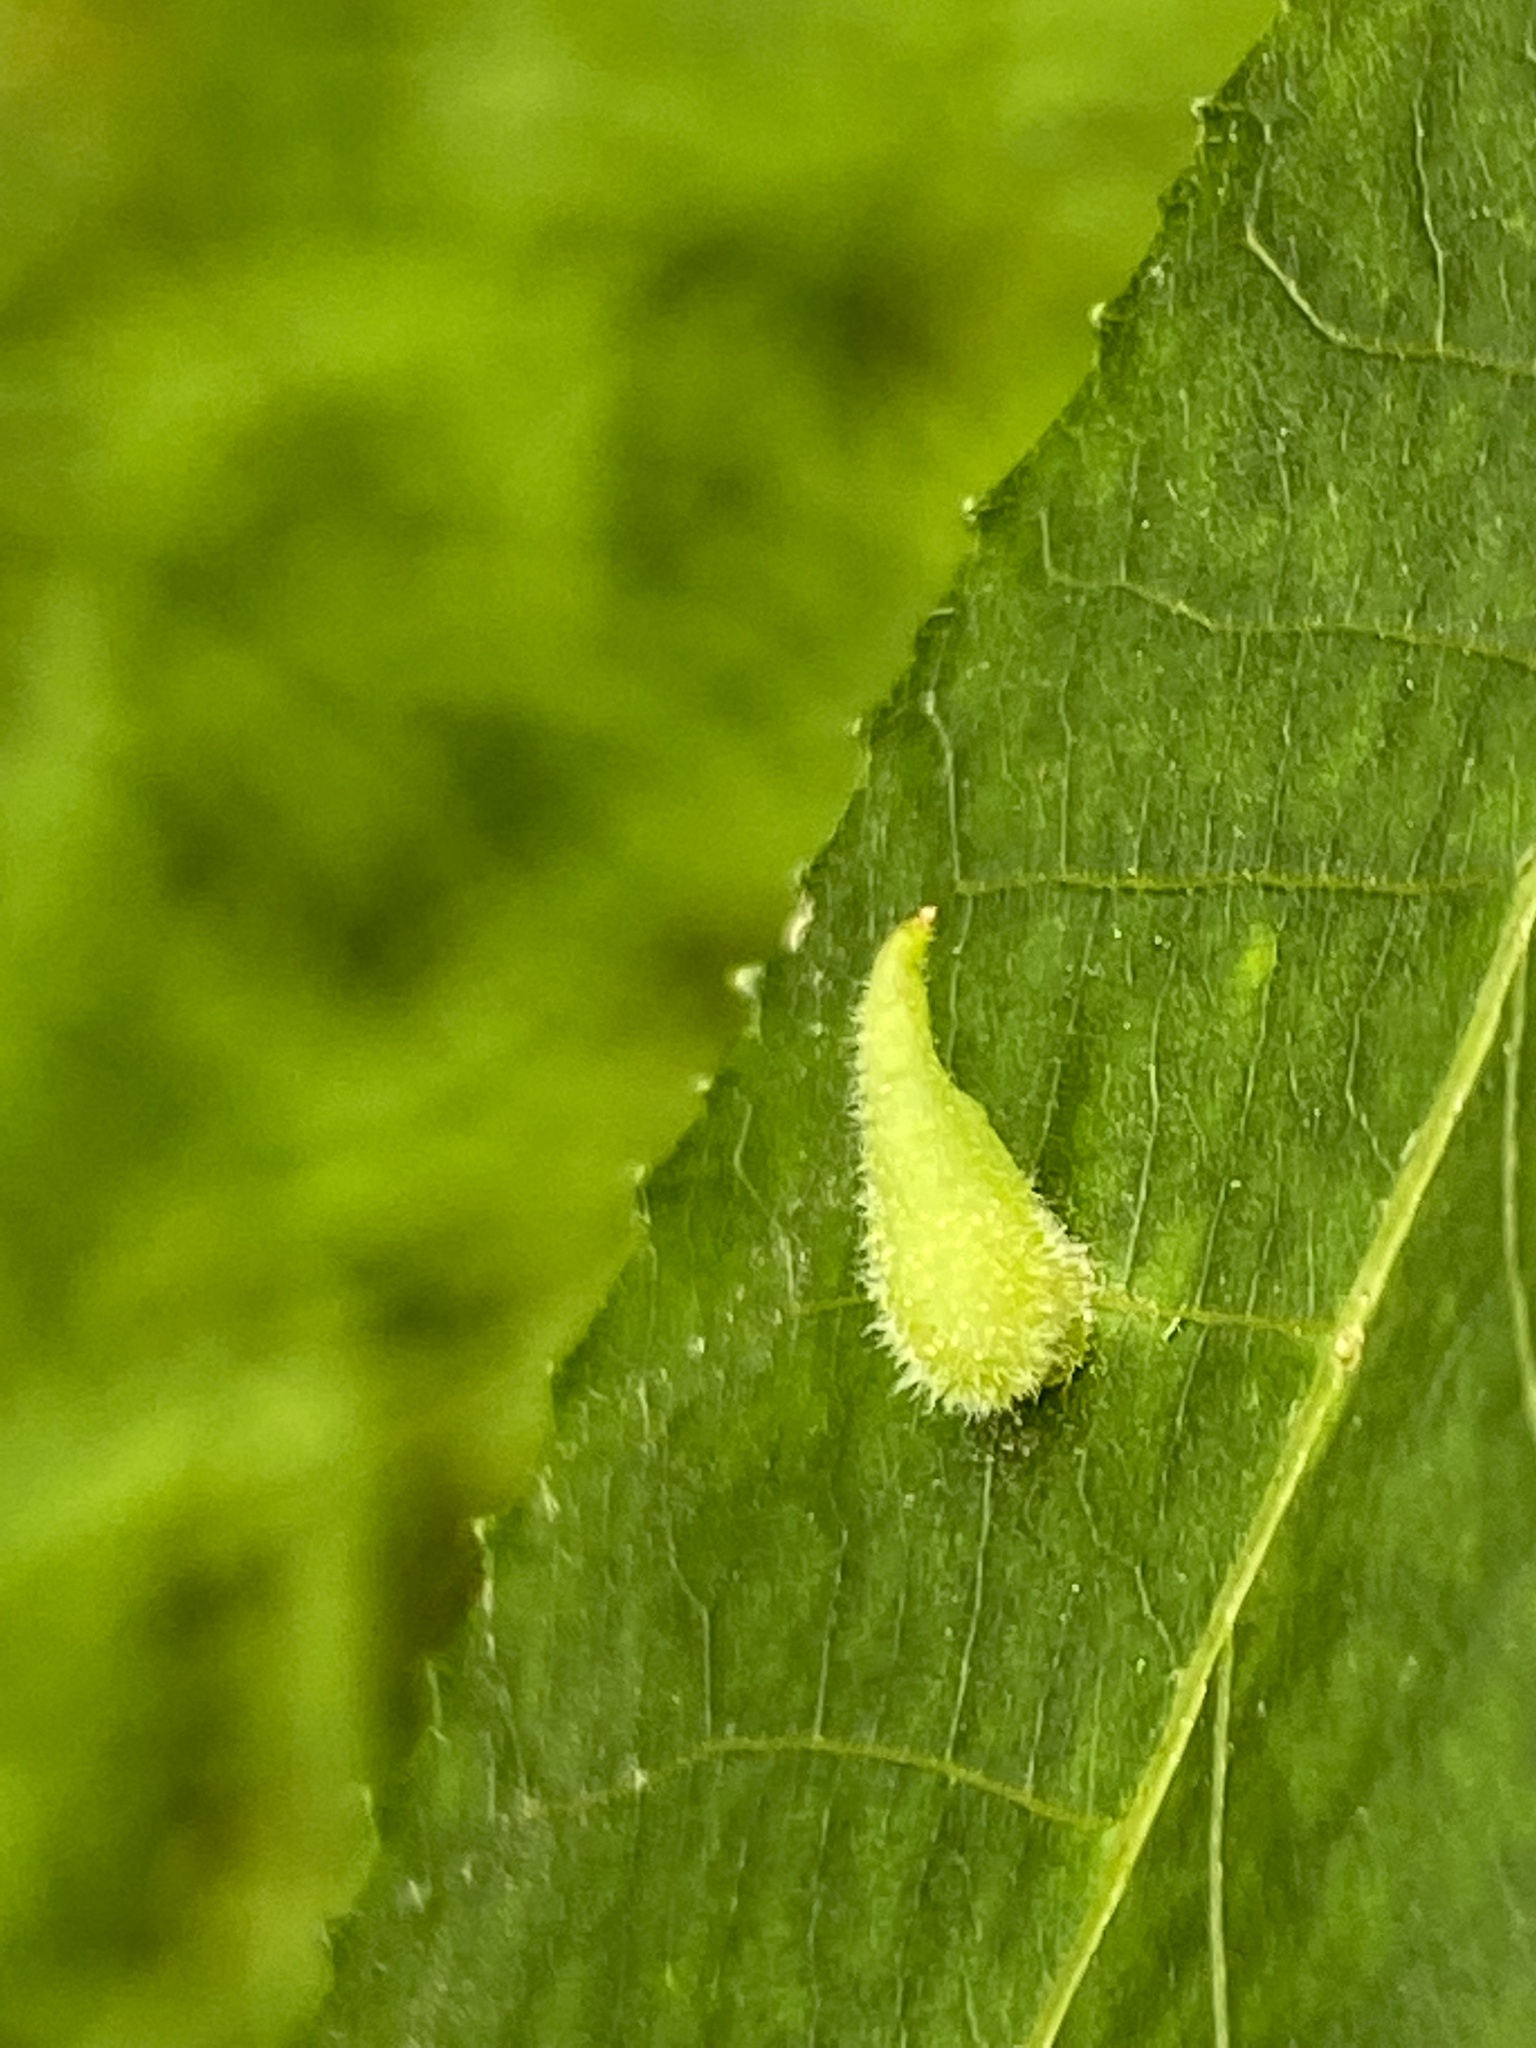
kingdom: Animalia
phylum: Arthropoda
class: Insecta
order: Diptera
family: Cecidomyiidae
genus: Caryomyia
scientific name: Caryomyia spinulosa
